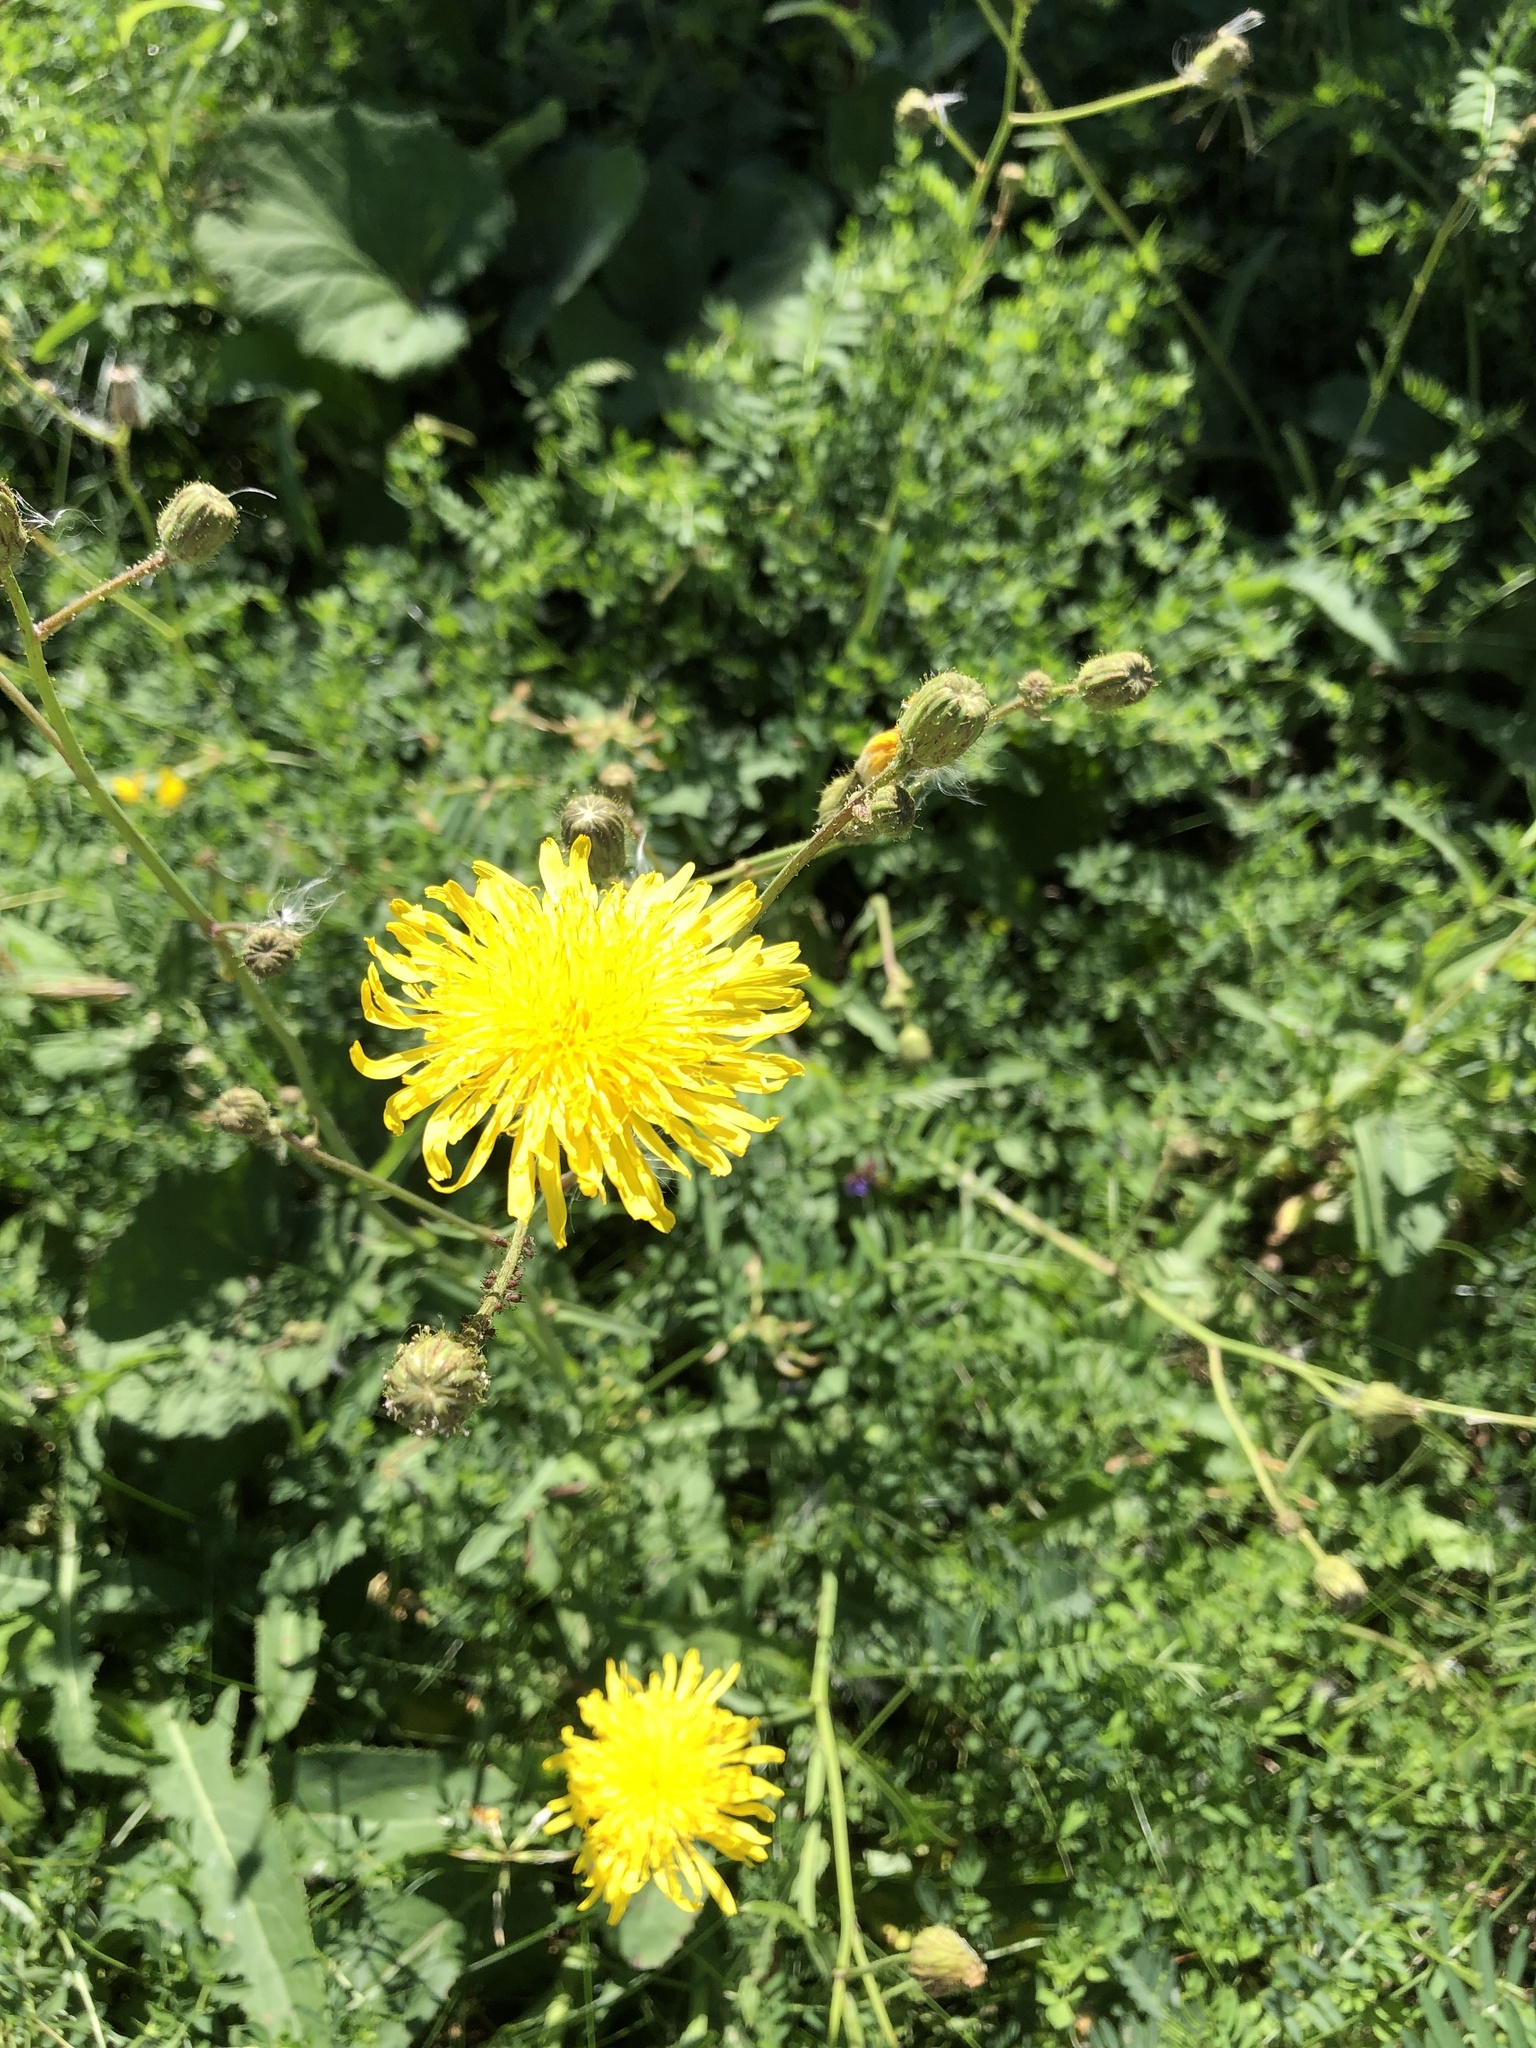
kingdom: Plantae
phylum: Tracheophyta
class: Magnoliopsida
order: Asterales
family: Asteraceae
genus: Sonchus
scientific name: Sonchus arvensis
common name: Perennial sow-thistle
